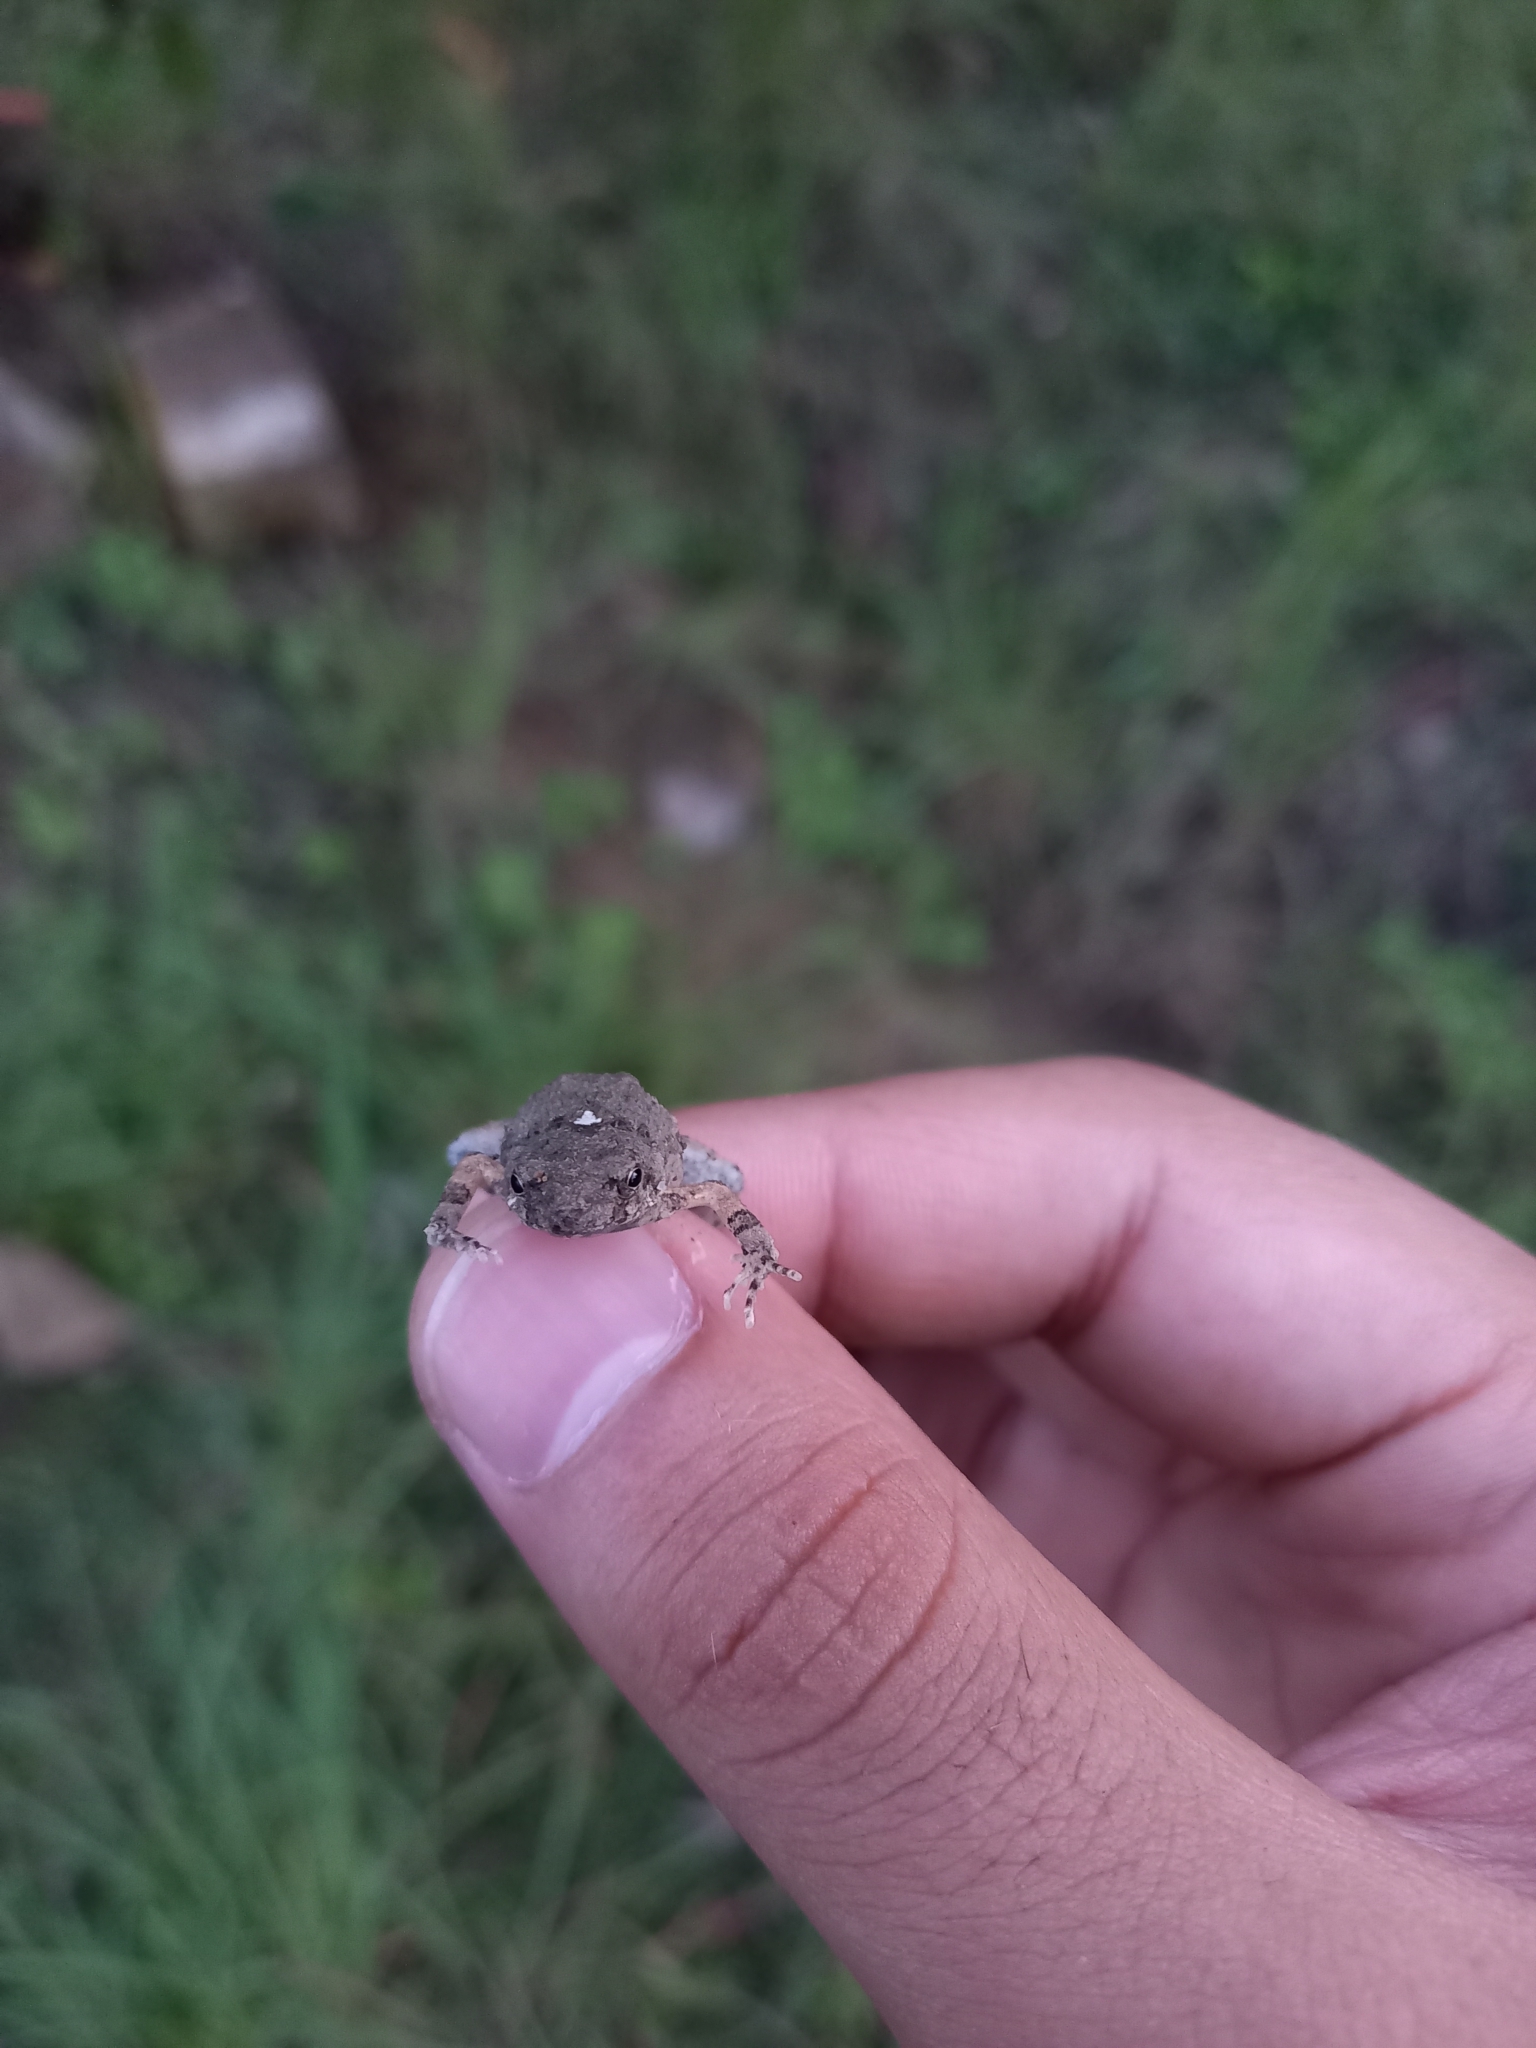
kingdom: Animalia
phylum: Chordata
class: Amphibia
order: Anura
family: Leptodactylidae
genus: Engystomops
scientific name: Engystomops pustulosus
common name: Tungara frog
